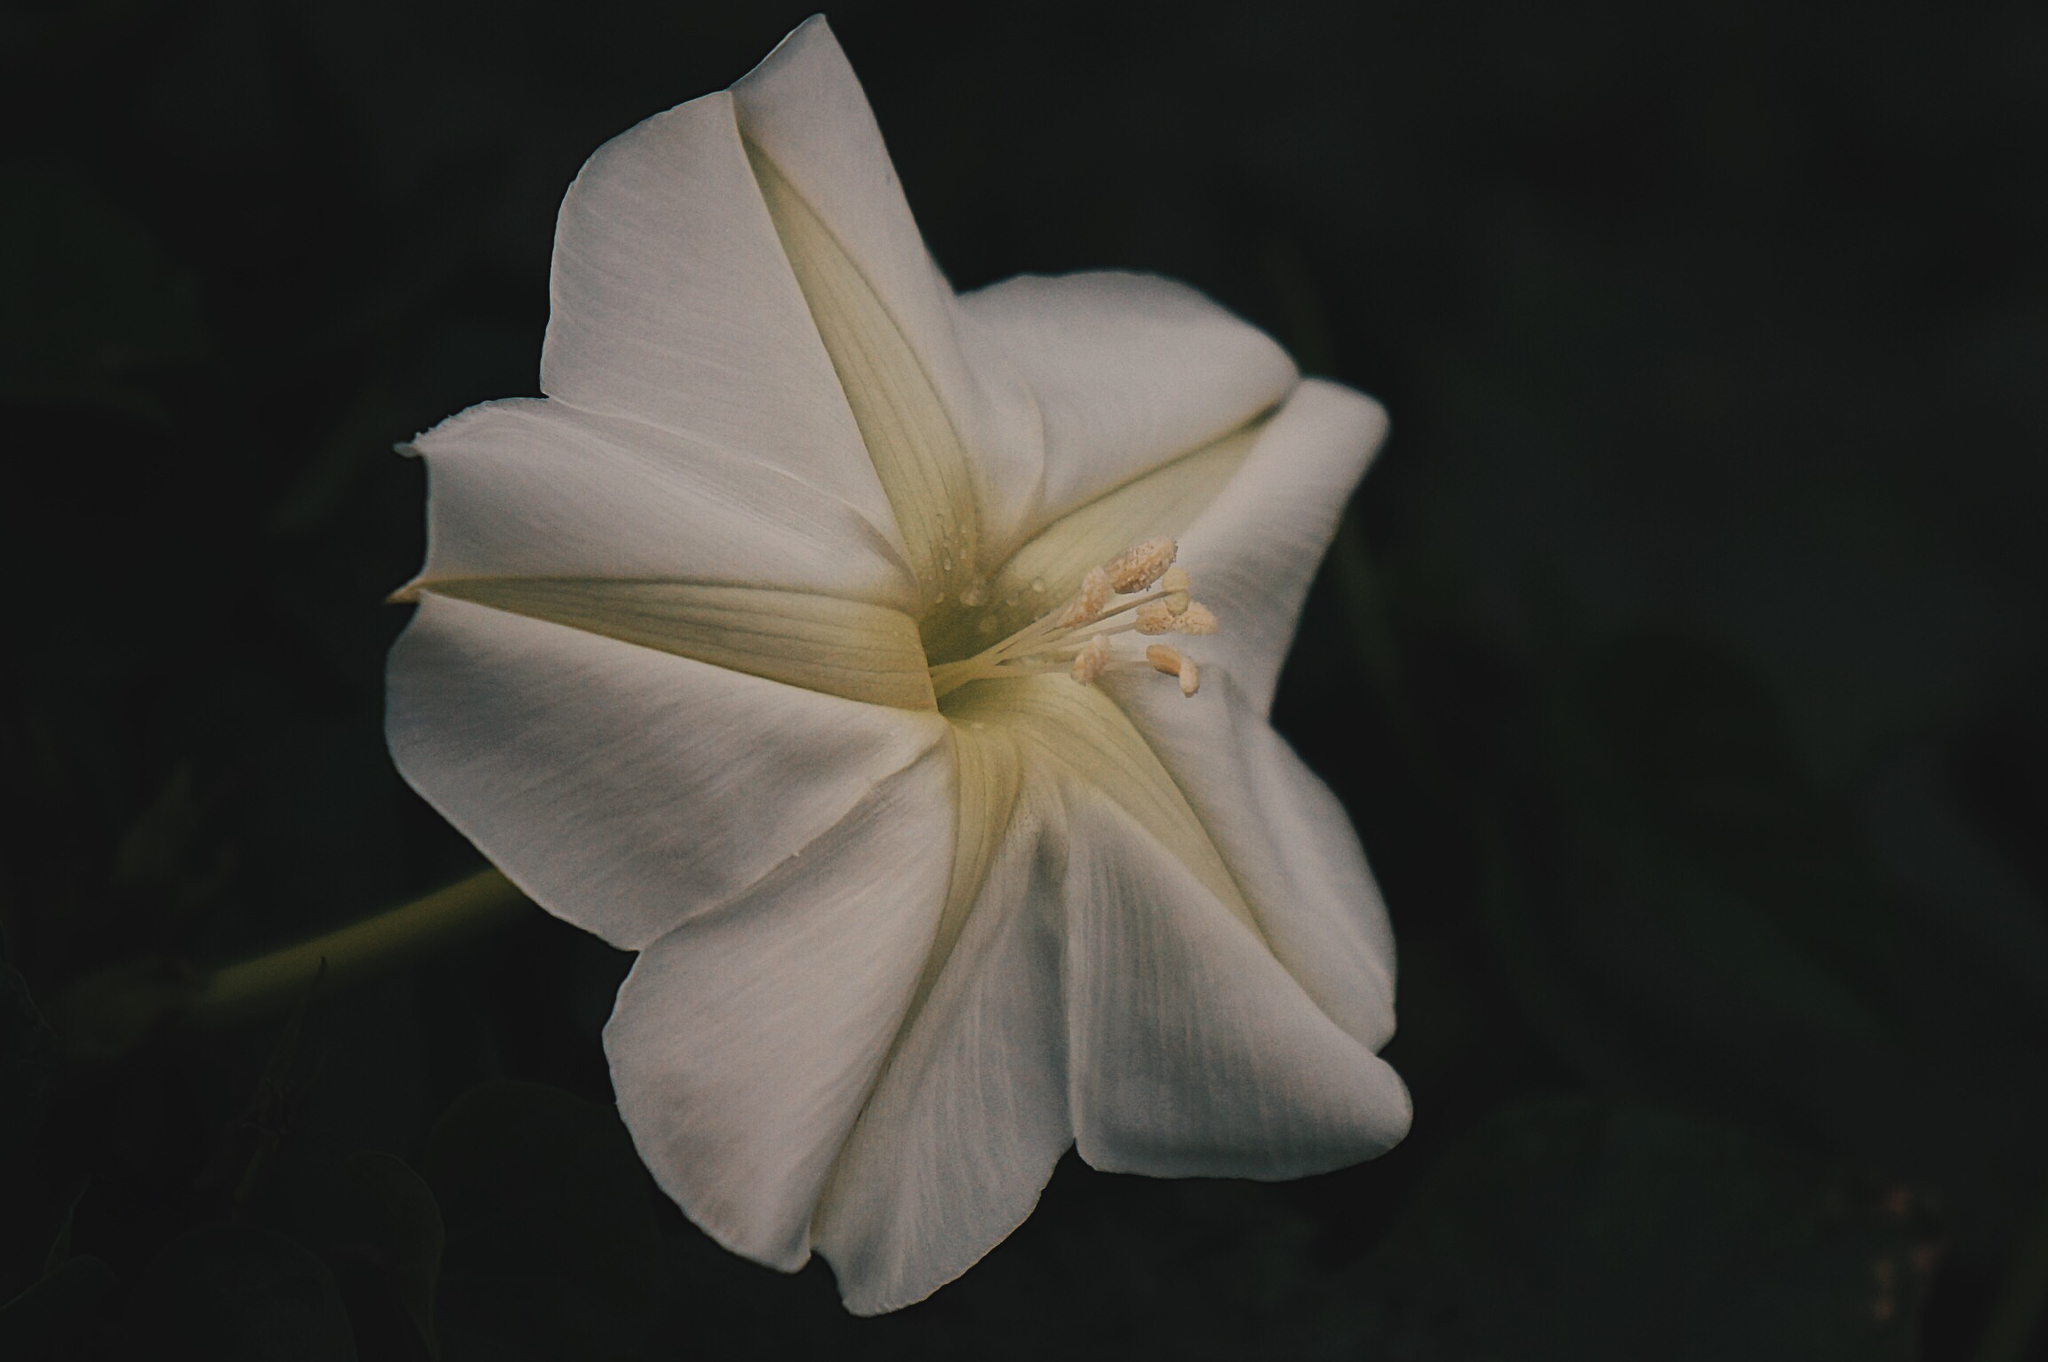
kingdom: Plantae
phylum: Tracheophyta
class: Magnoliopsida
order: Solanales
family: Convolvulaceae
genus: Ipomoea
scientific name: Ipomoea alba
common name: Moonflower
